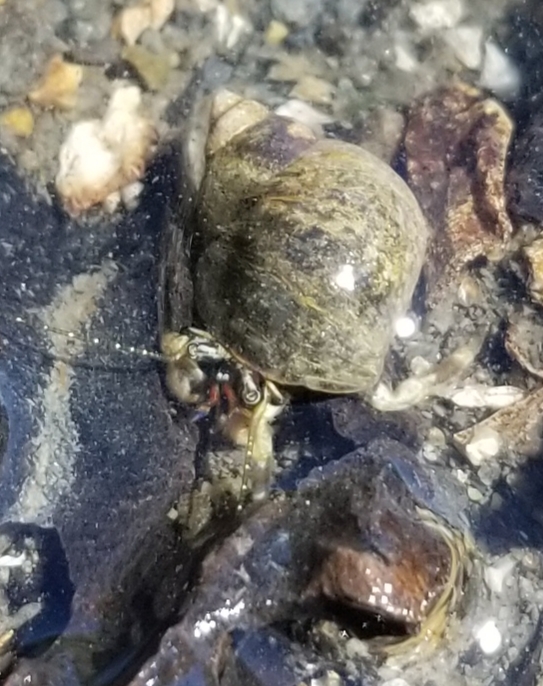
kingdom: Animalia
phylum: Arthropoda
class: Malacostraca
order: Decapoda
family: Paguridae
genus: Pagurus
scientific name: Pagurus hirsutiusculus
